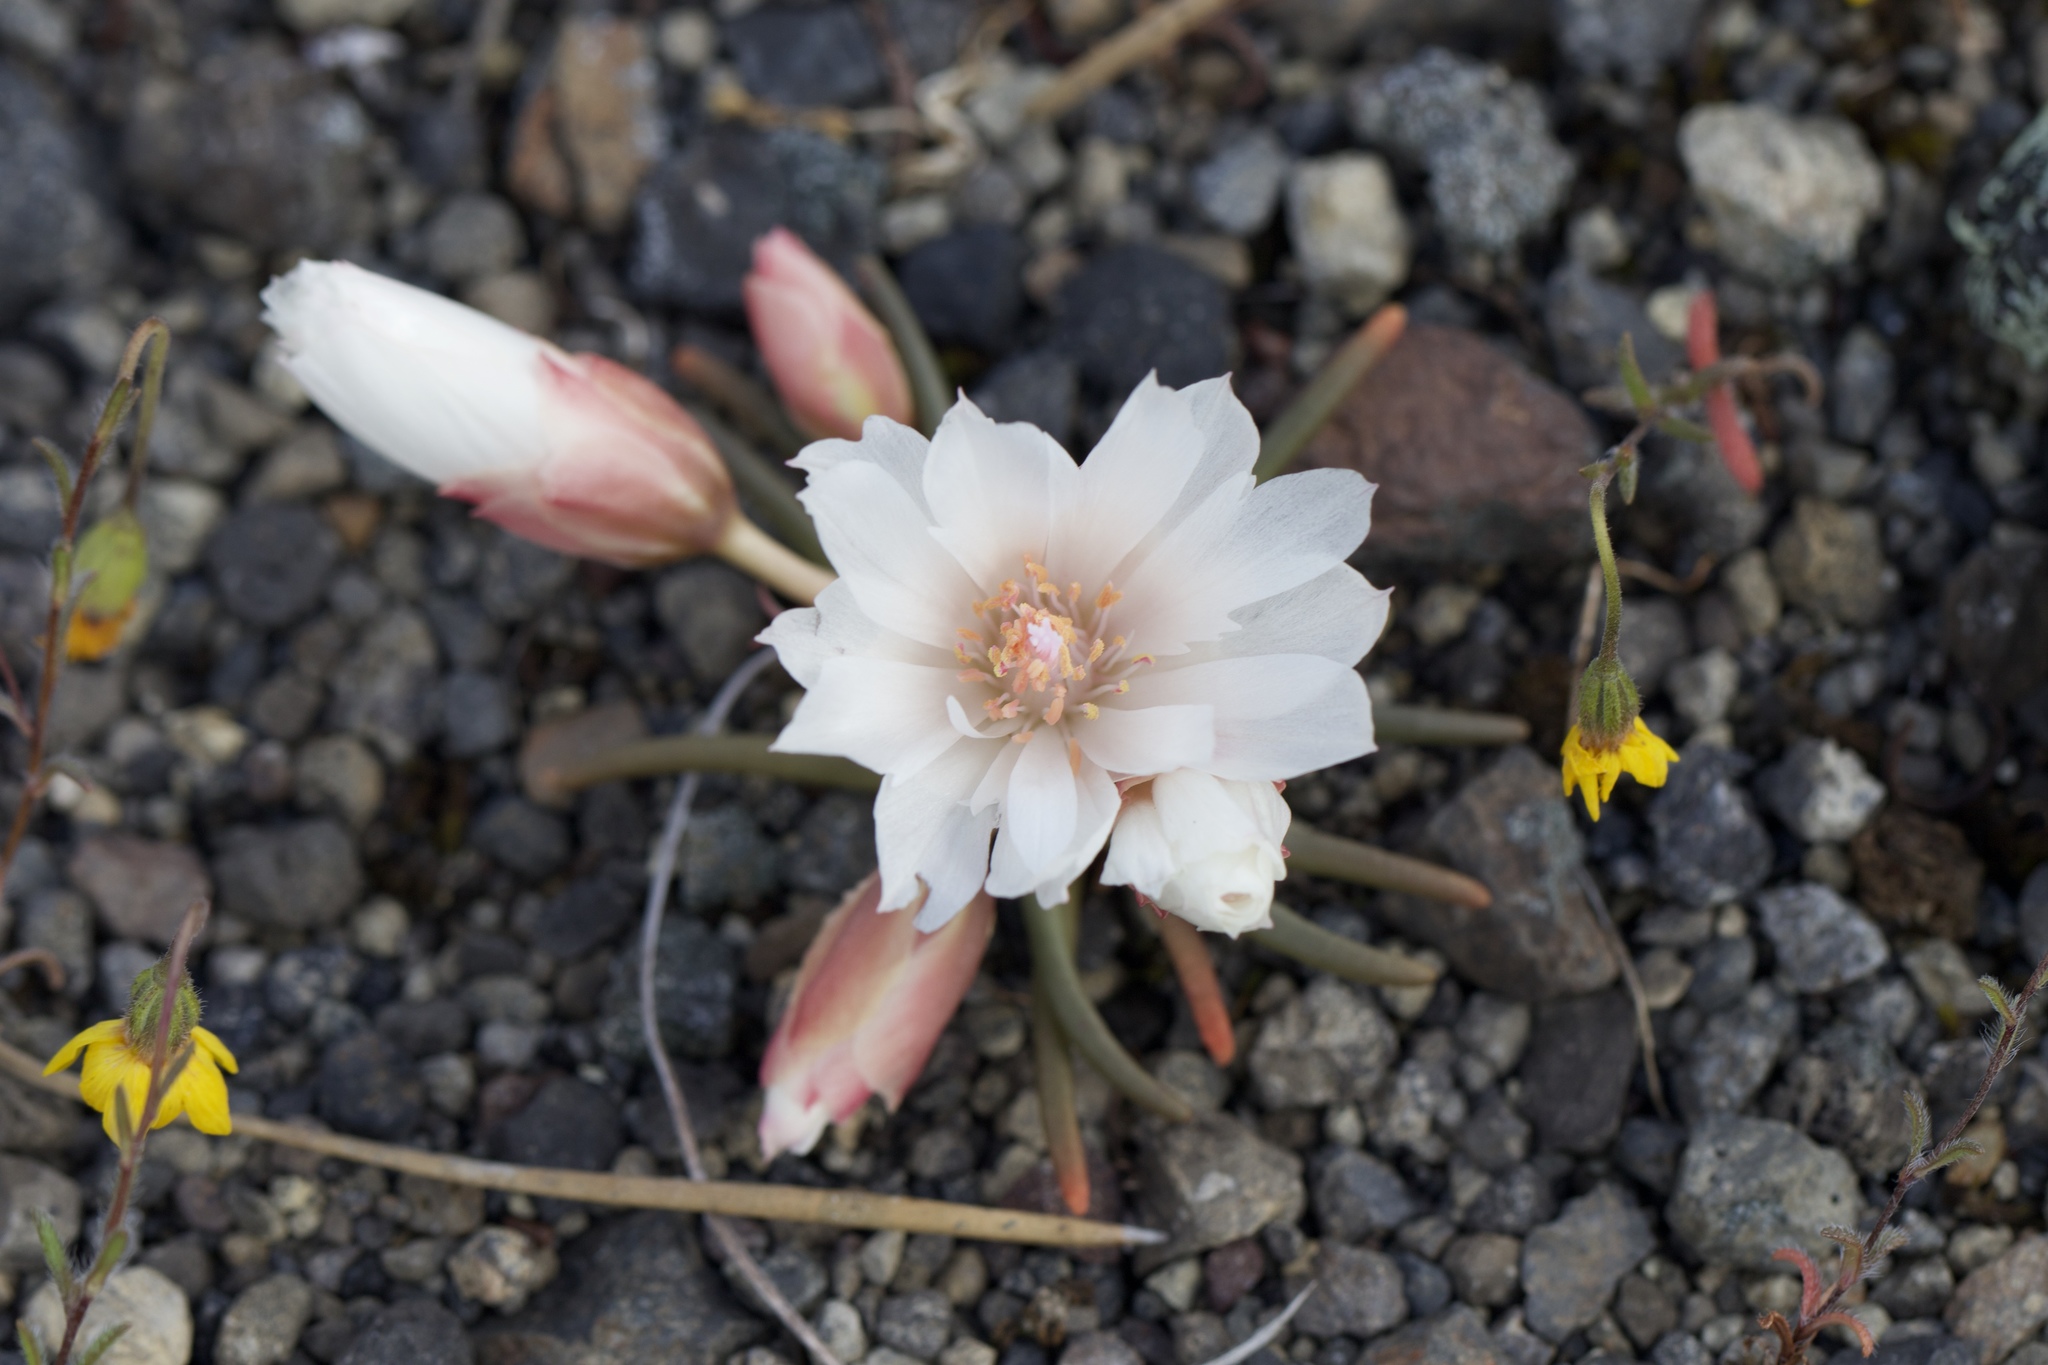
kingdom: Plantae
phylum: Tracheophyta
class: Magnoliopsida
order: Caryophyllales
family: Montiaceae
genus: Lewisia
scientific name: Lewisia rediviva
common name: Bitter-root
